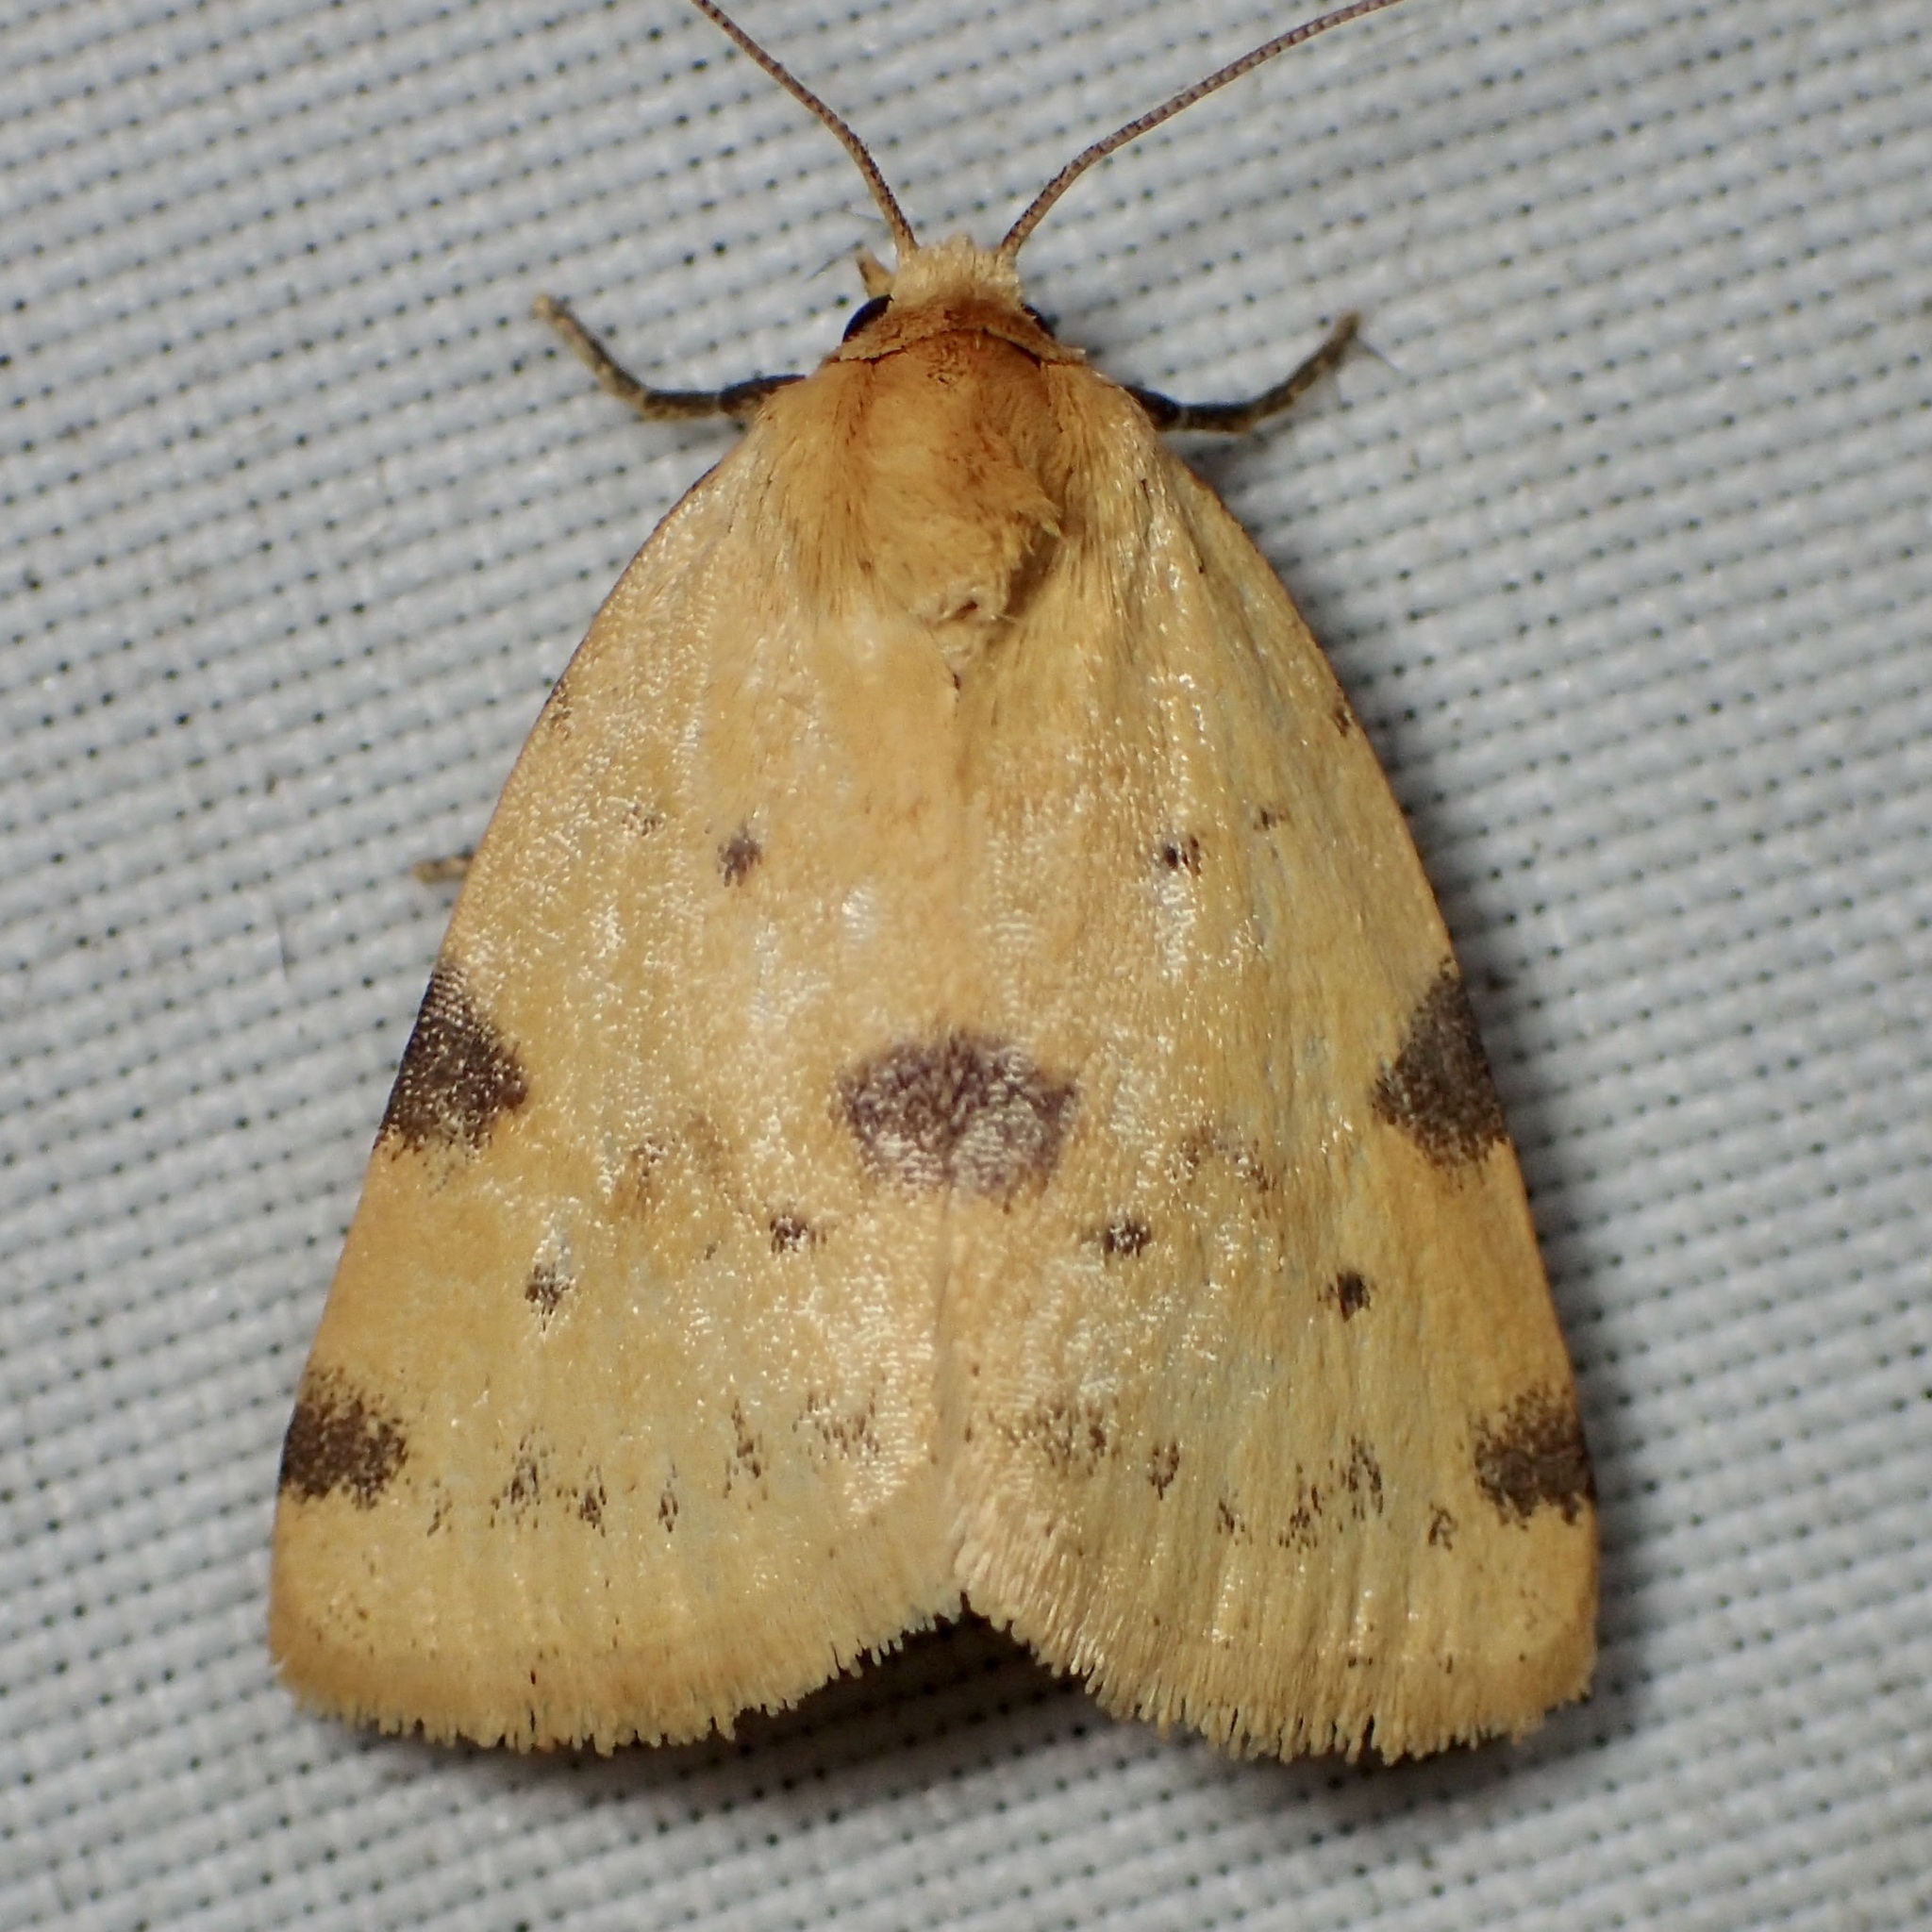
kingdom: Animalia
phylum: Arthropoda
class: Insecta
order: Lepidoptera
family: Noctuidae
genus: Azenia
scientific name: Azenia edentata
